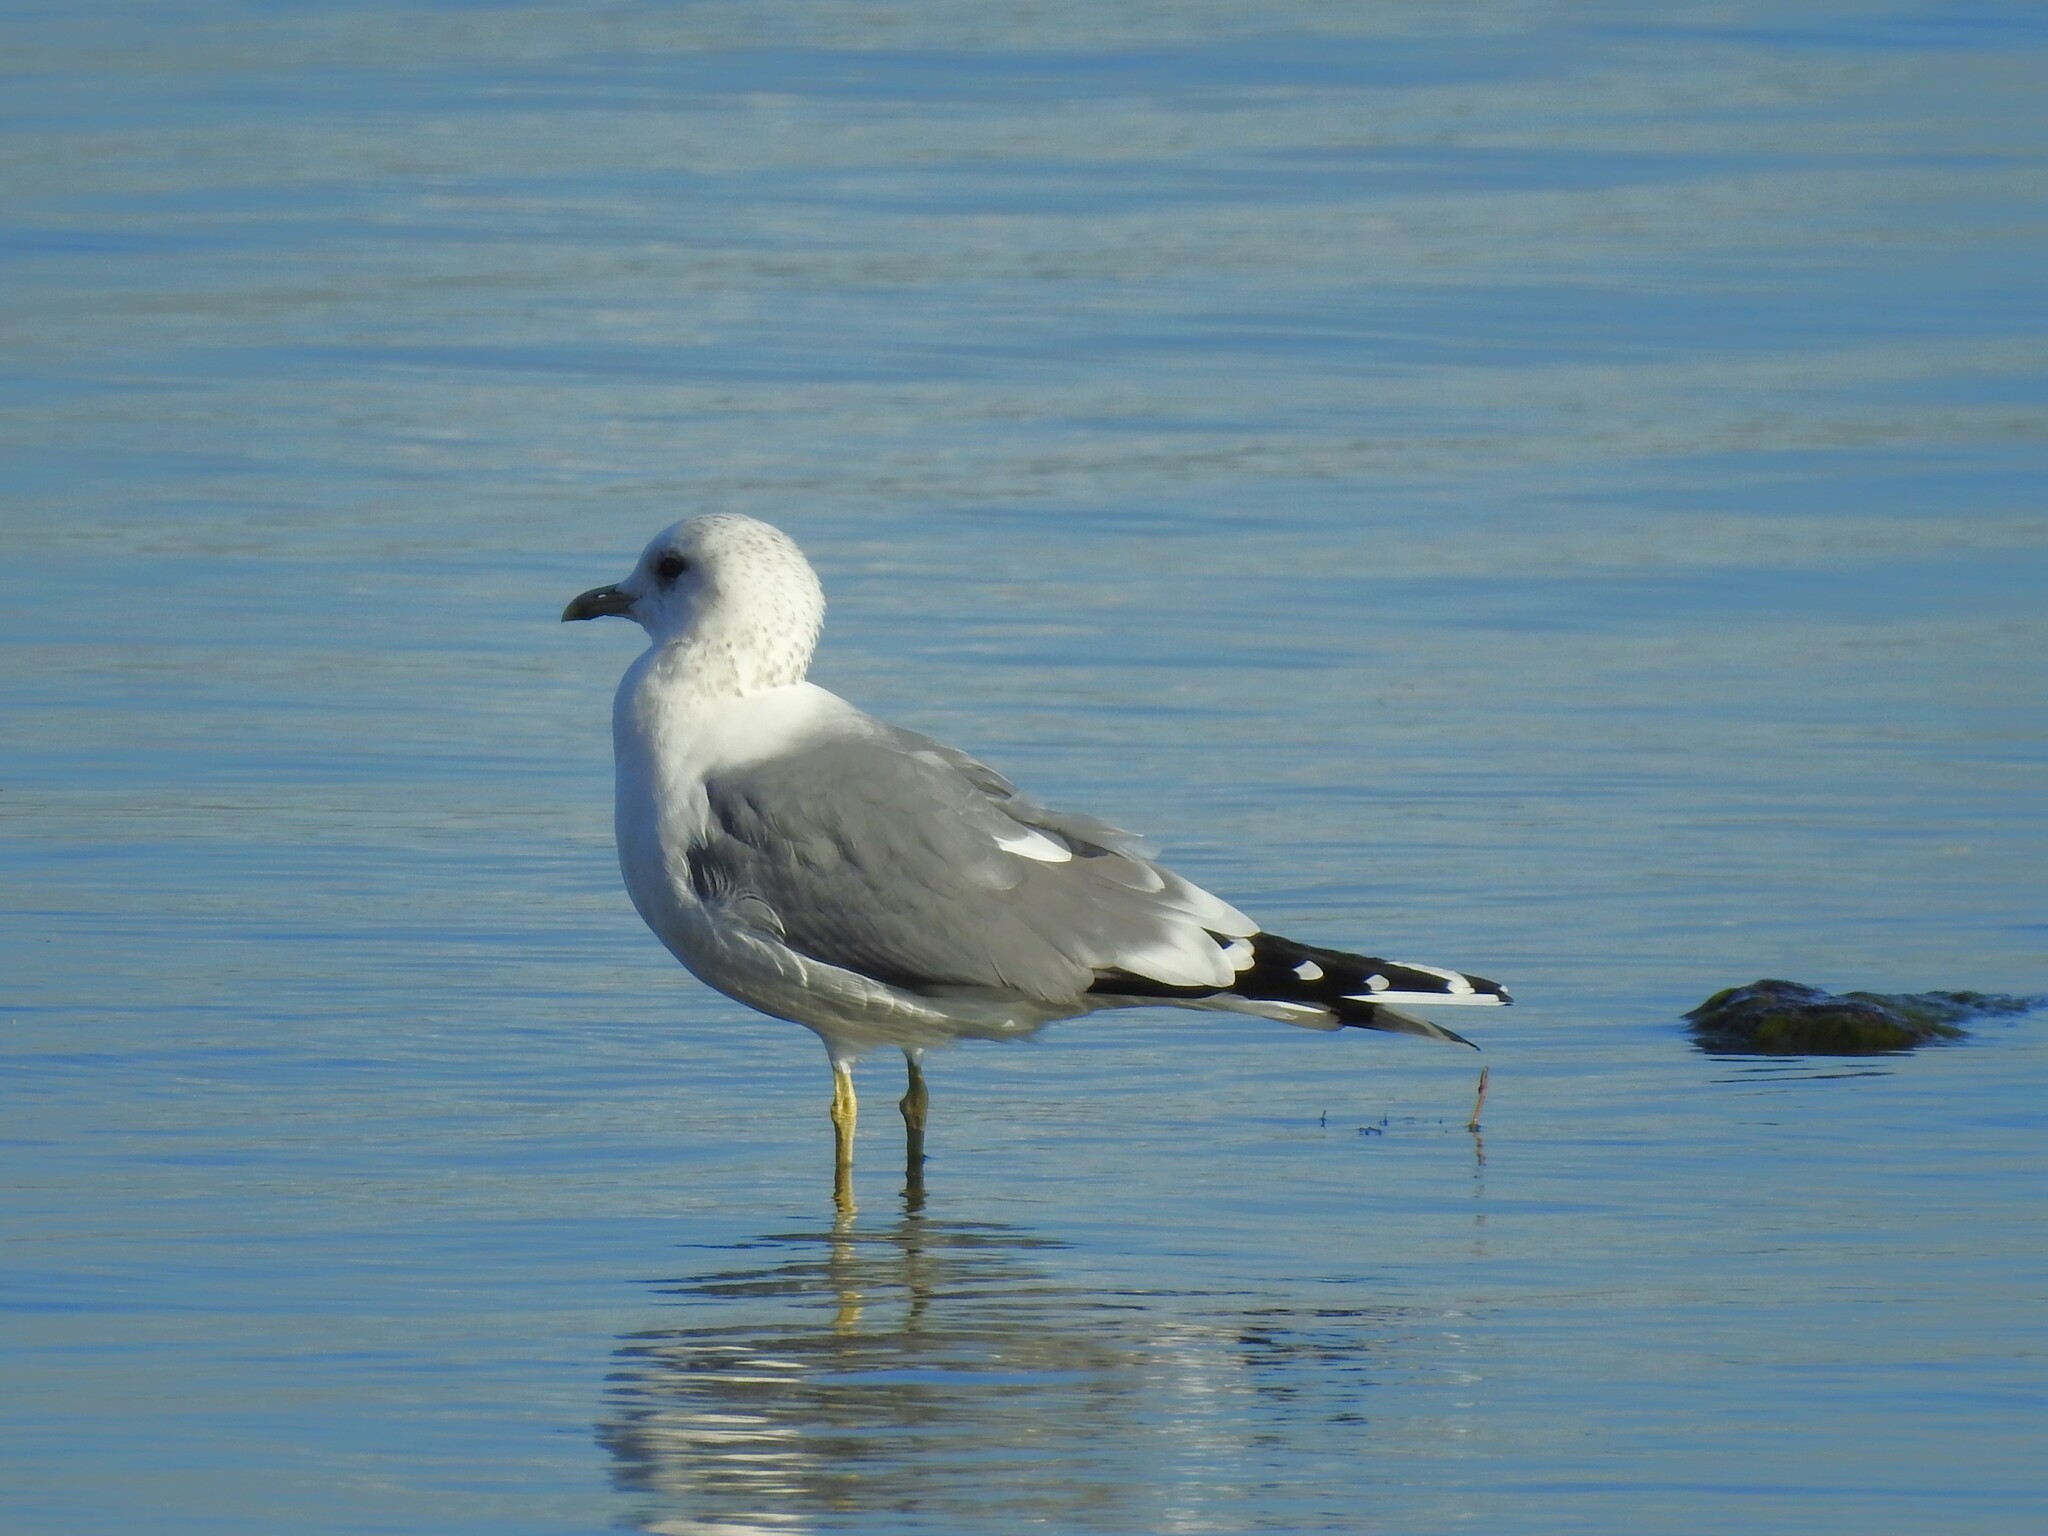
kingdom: Animalia
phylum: Chordata
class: Aves
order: Charadriiformes
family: Laridae
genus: Larus
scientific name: Larus canus
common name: Mew gull
